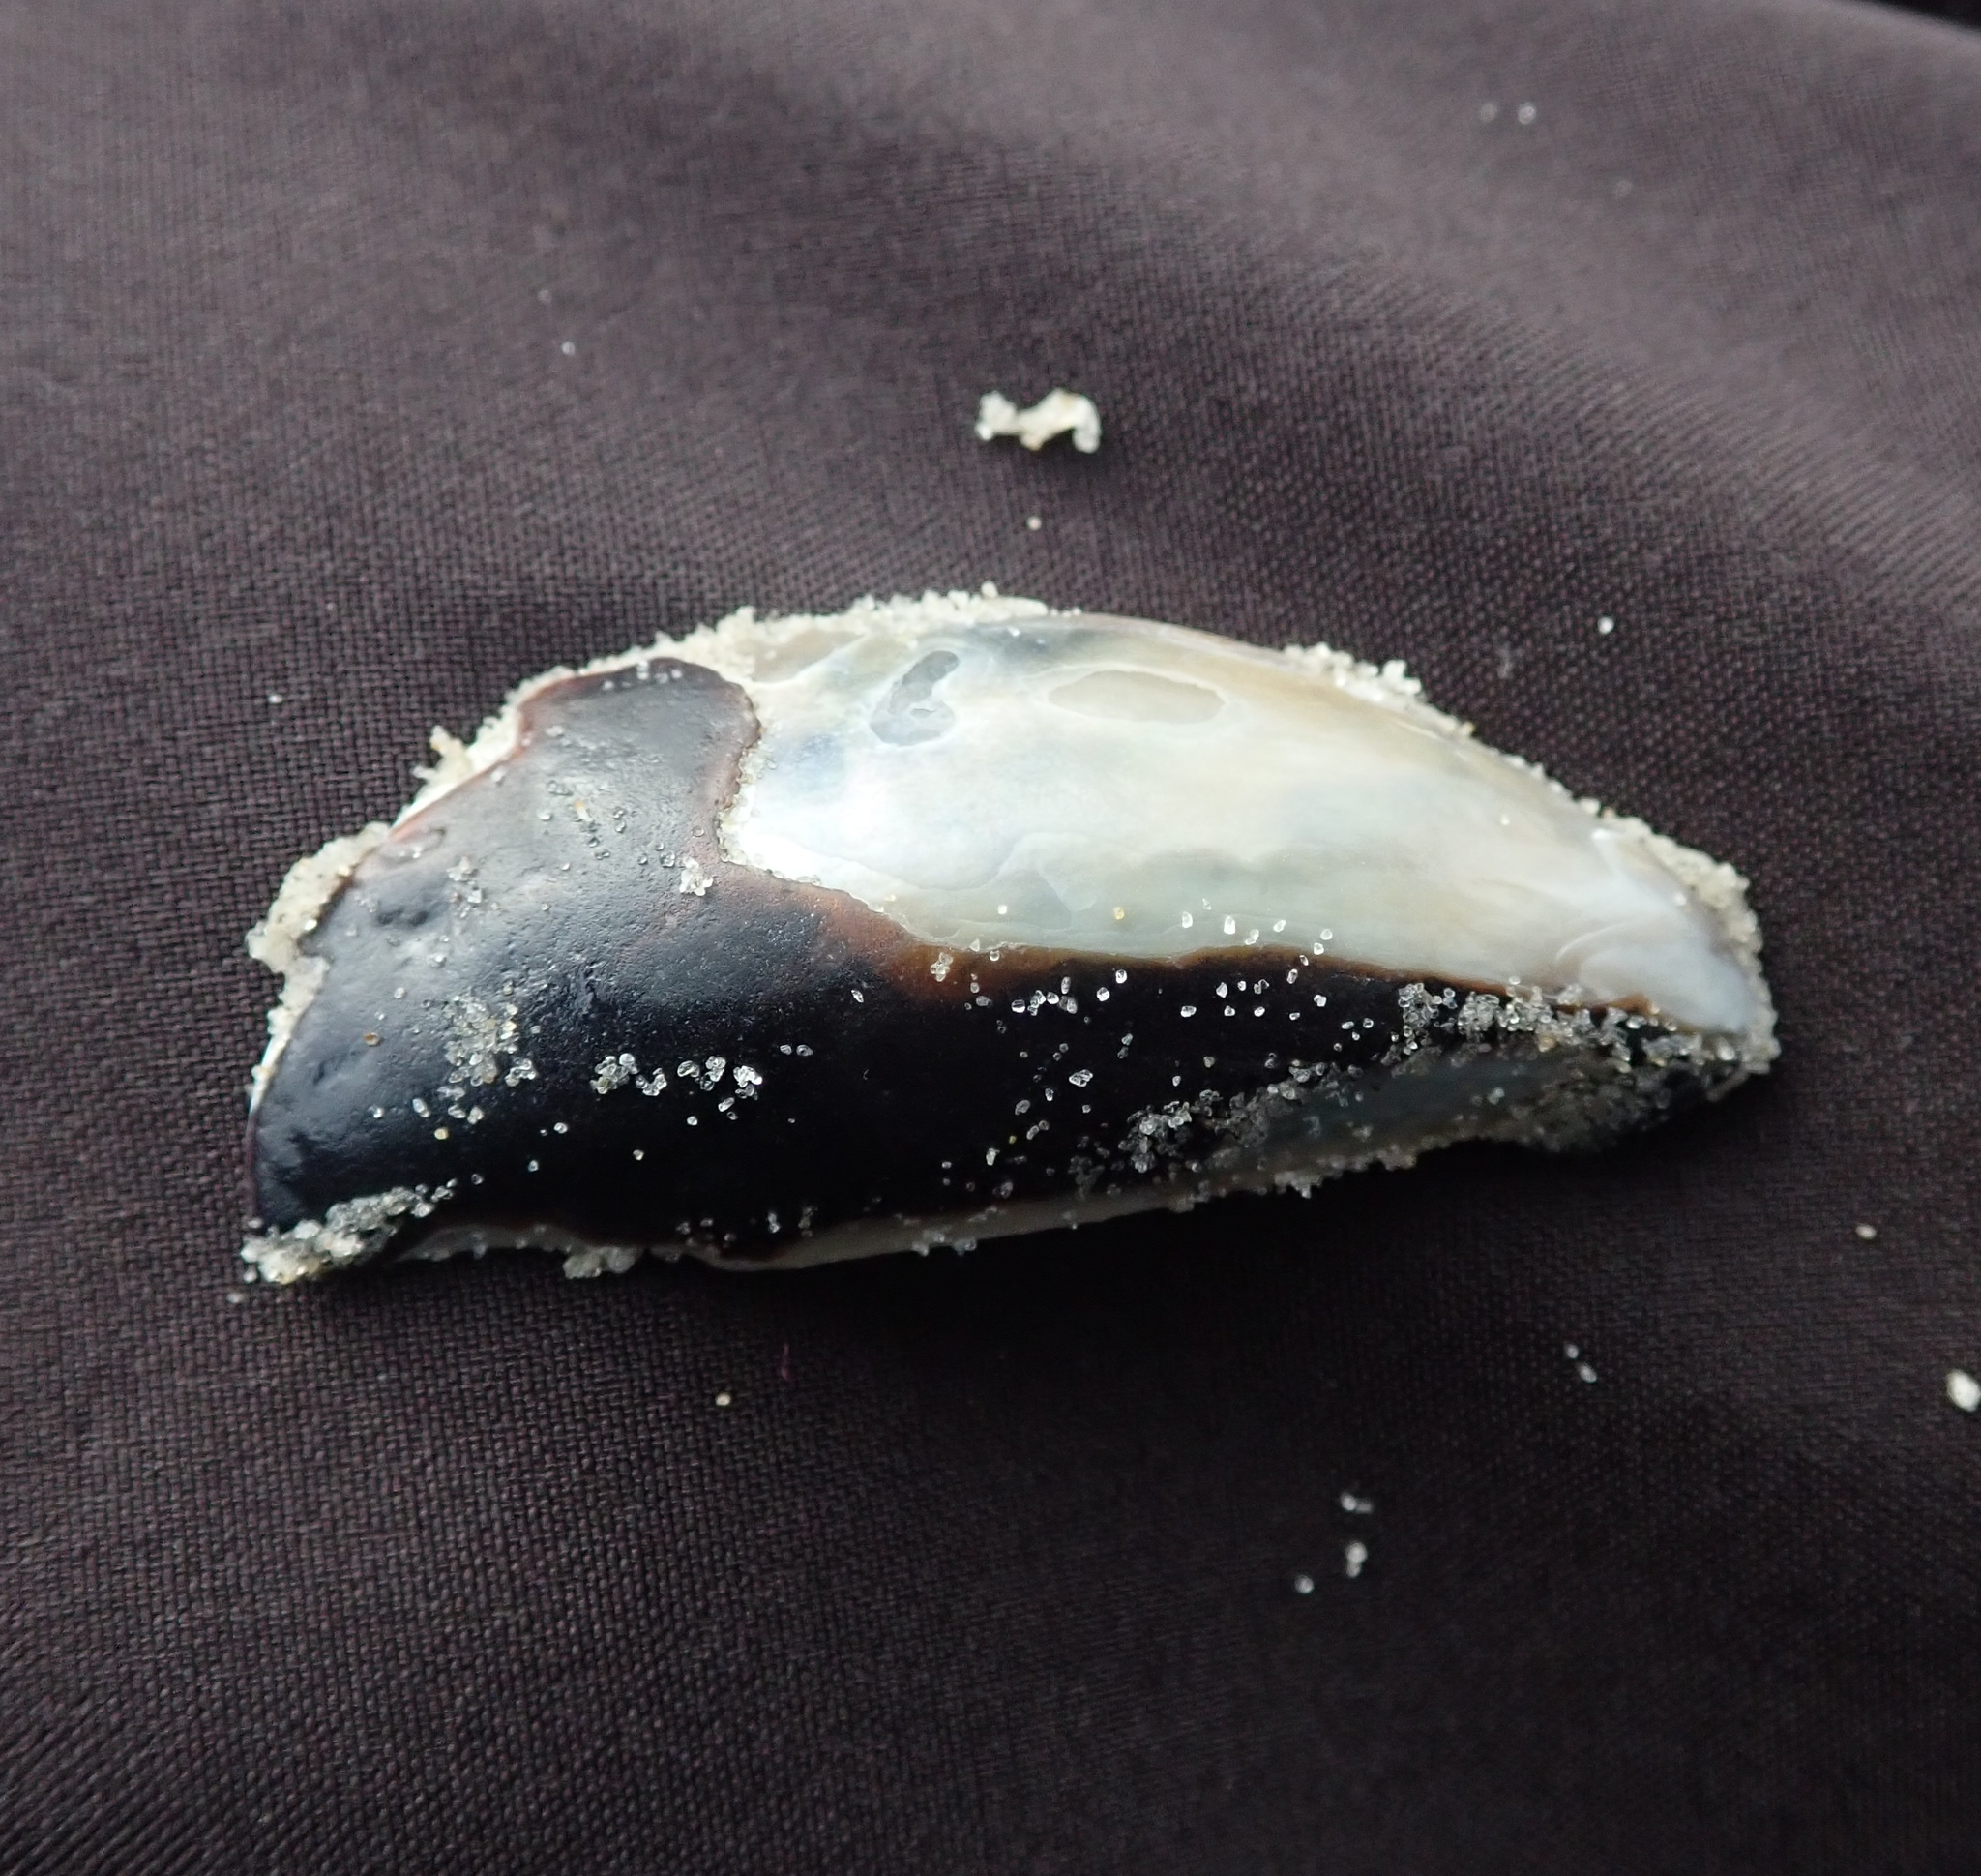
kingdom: Animalia
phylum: Mollusca
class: Bivalvia
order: Mytilida
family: Mytilidae
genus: Mytilus
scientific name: Mytilus edulis
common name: Blue mussel
